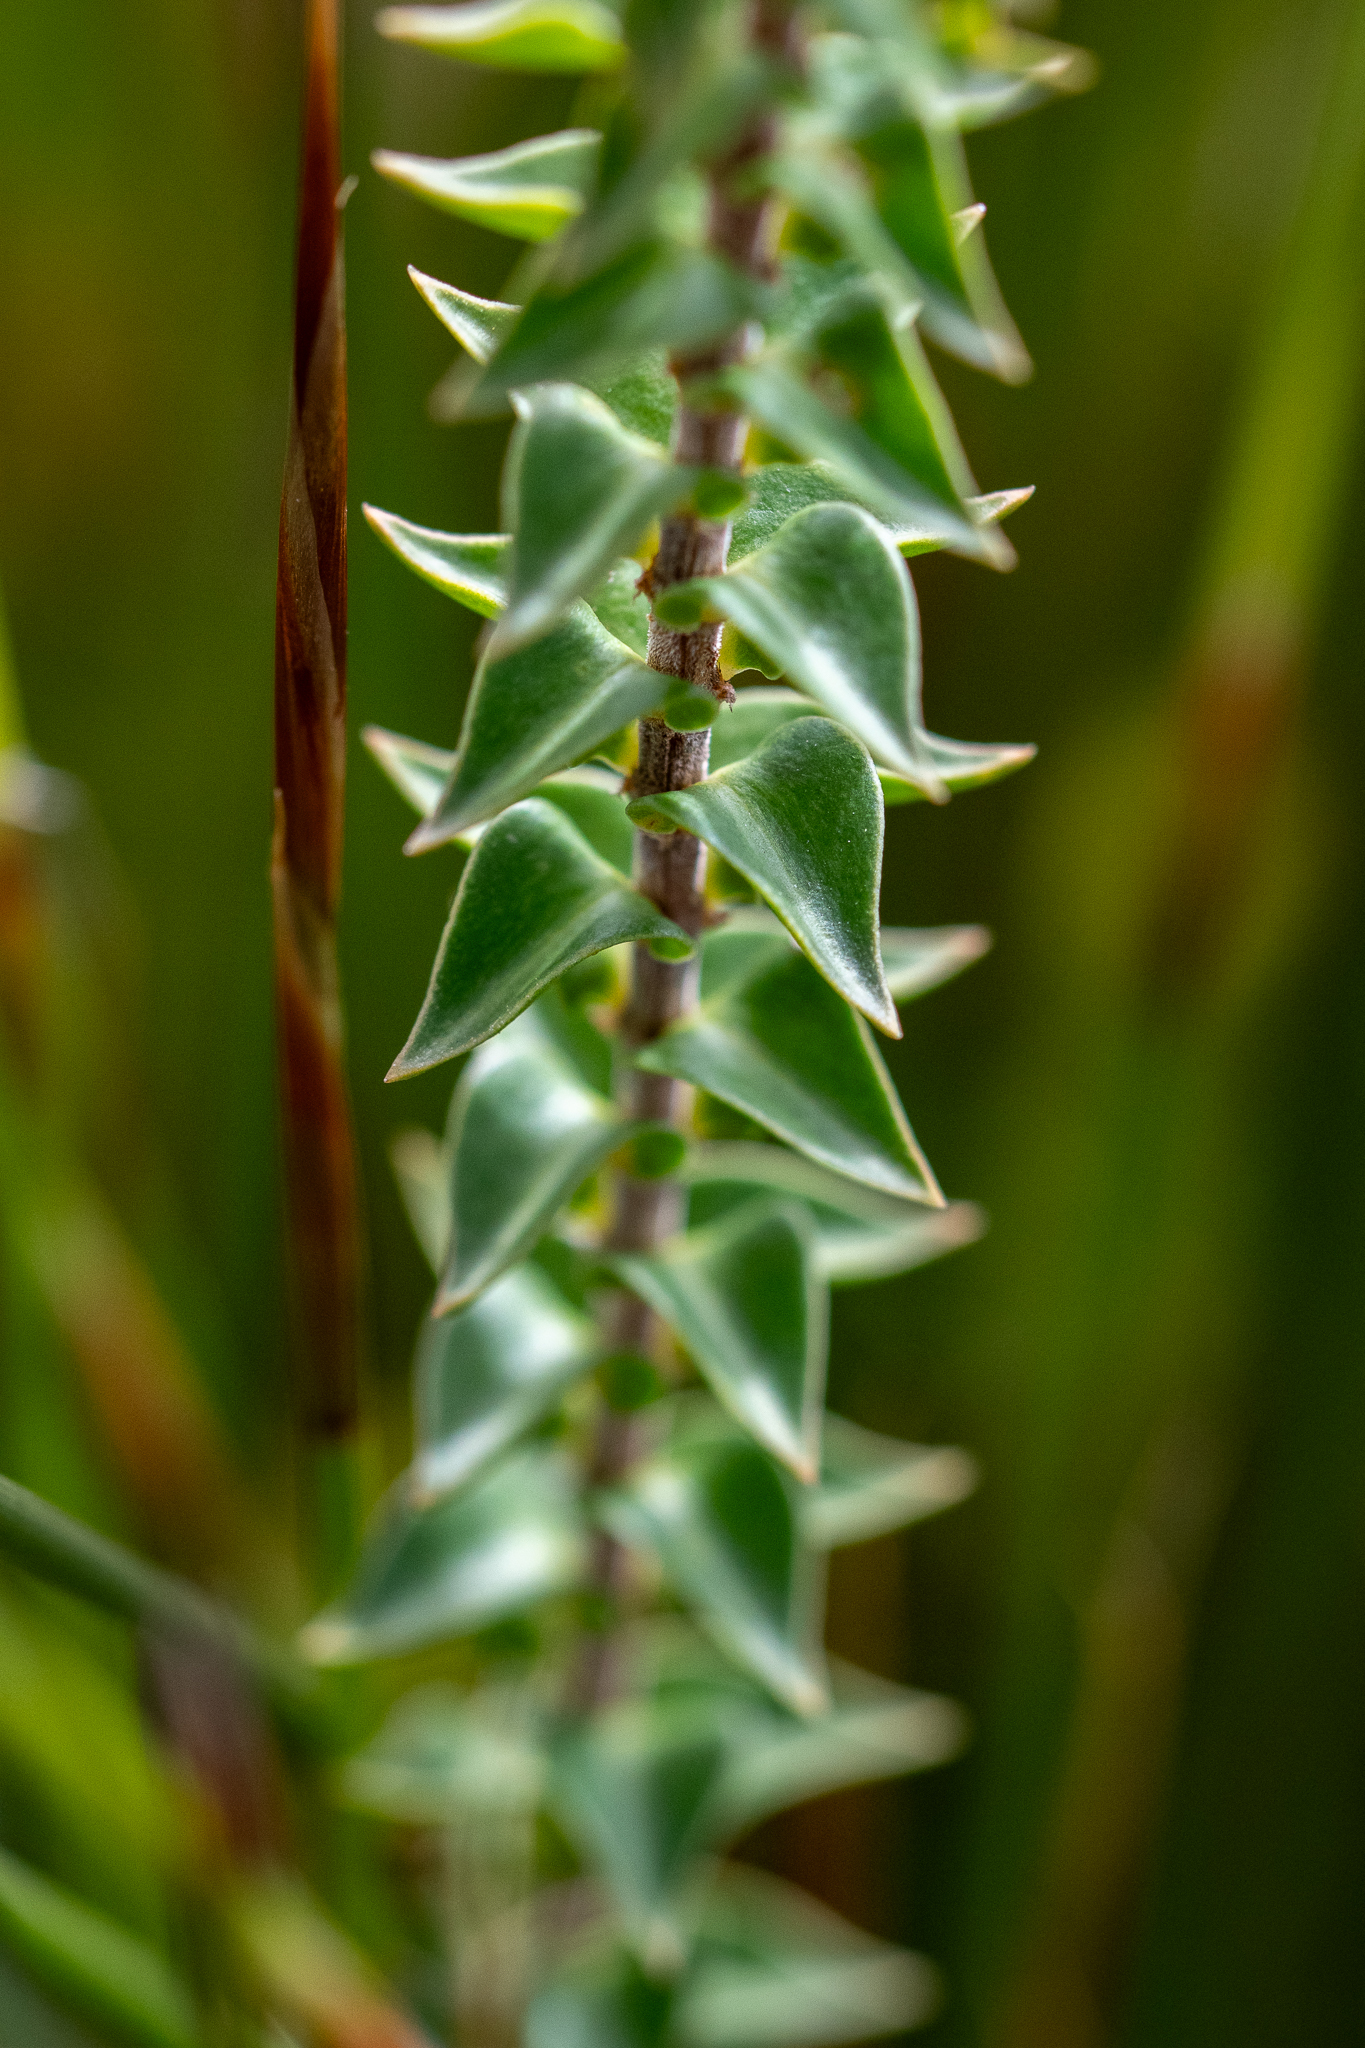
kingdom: Plantae
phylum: Tracheophyta
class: Magnoliopsida
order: Myrtales
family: Penaeaceae
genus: Penaea
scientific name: Penaea mucronata
